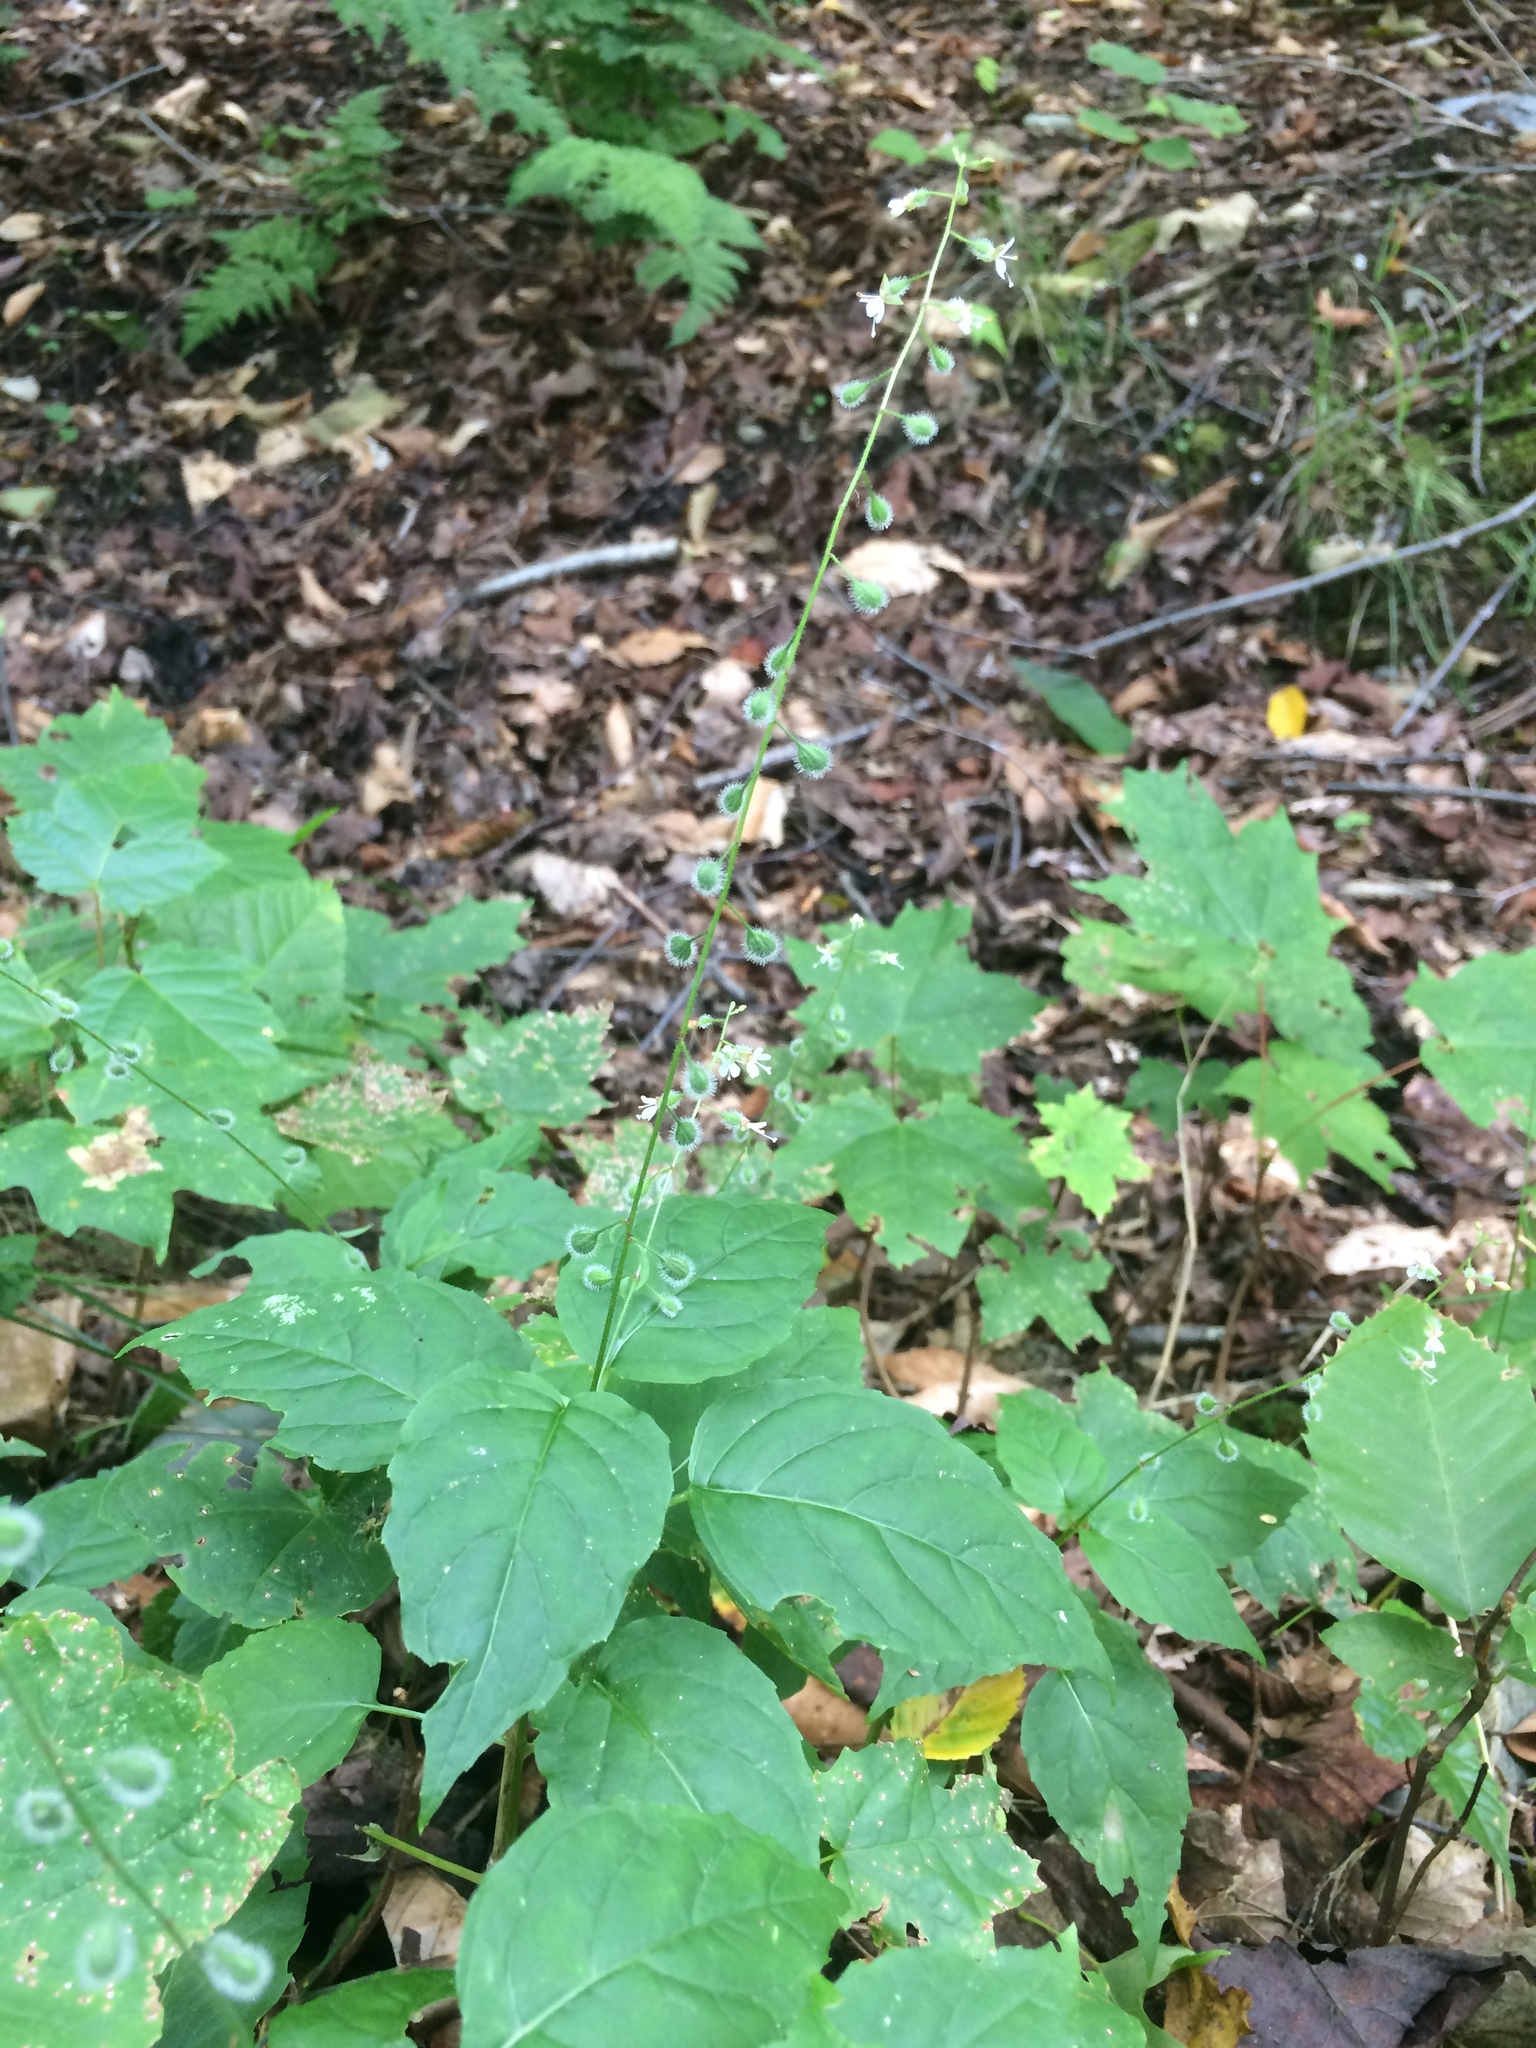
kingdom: Plantae
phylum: Tracheophyta
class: Magnoliopsida
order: Myrtales
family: Onagraceae
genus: Circaea
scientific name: Circaea canadensis
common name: Broad-leaved enchanter's nightshade
